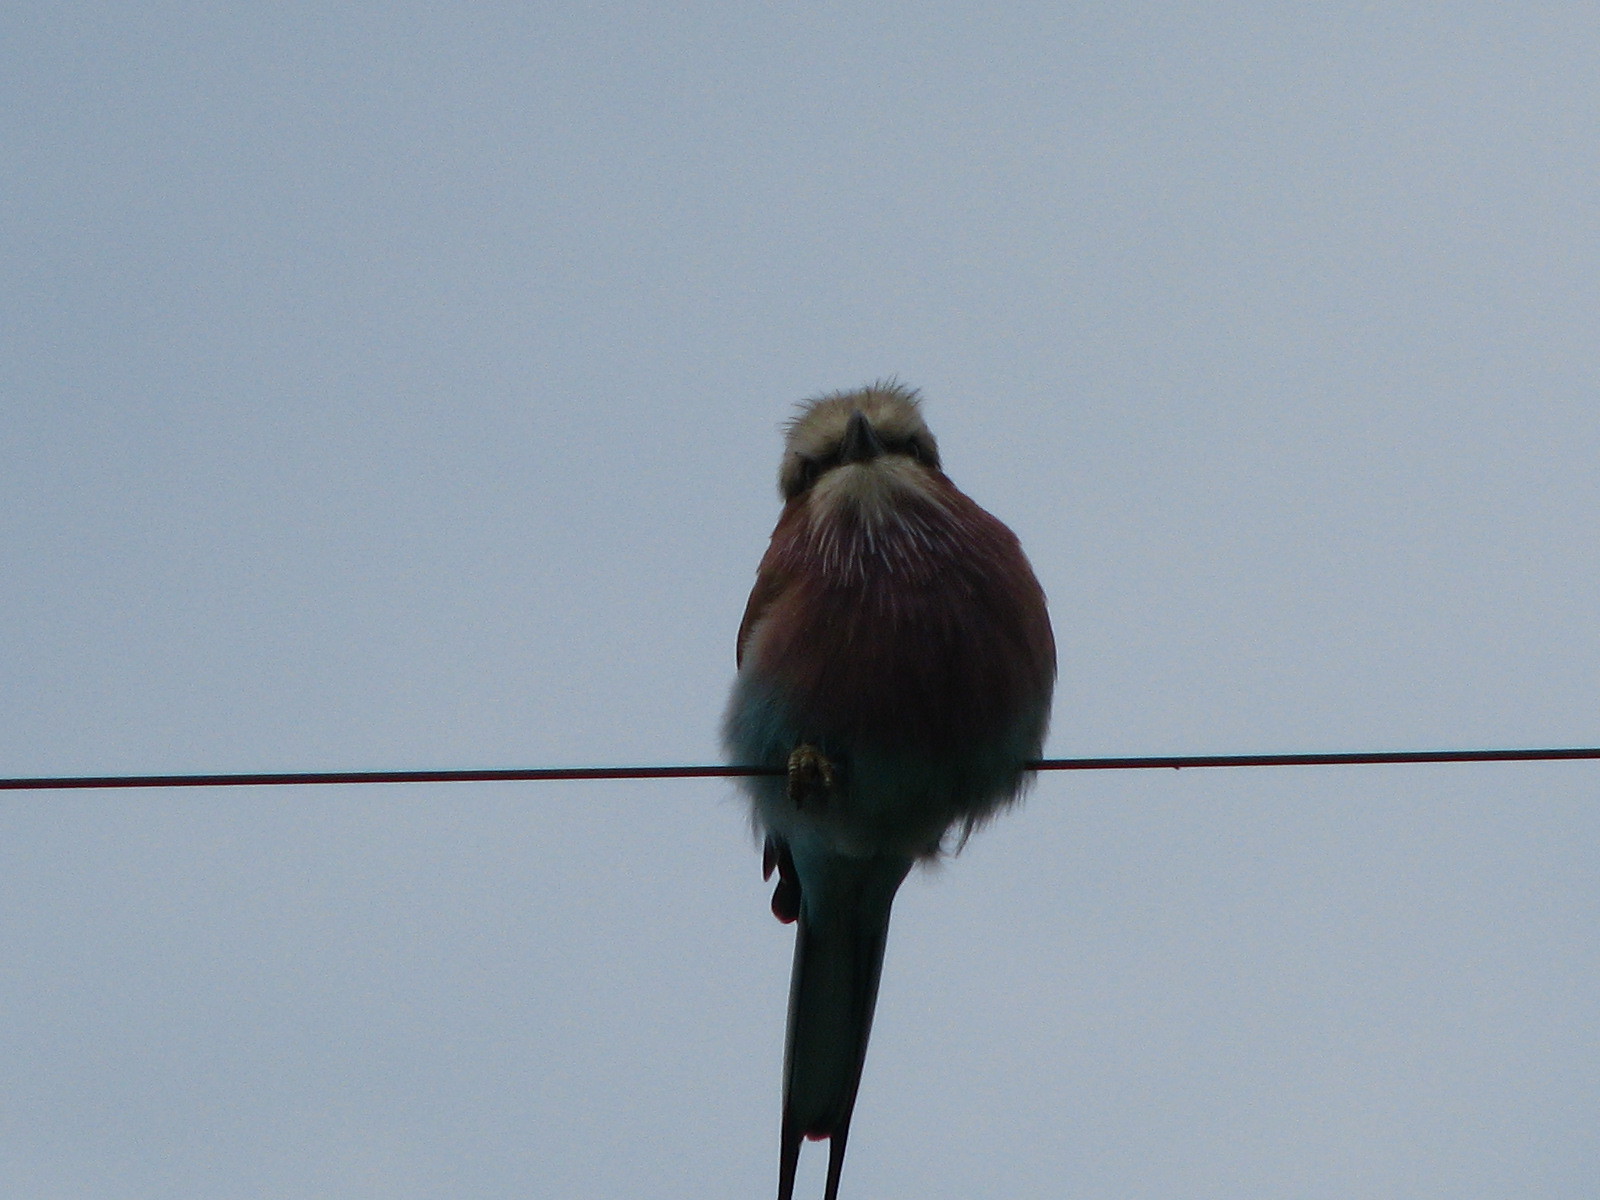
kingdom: Animalia
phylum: Chordata
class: Aves
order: Coraciiformes
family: Coraciidae
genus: Coracias
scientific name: Coracias caudatus
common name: Lilac-breasted roller
